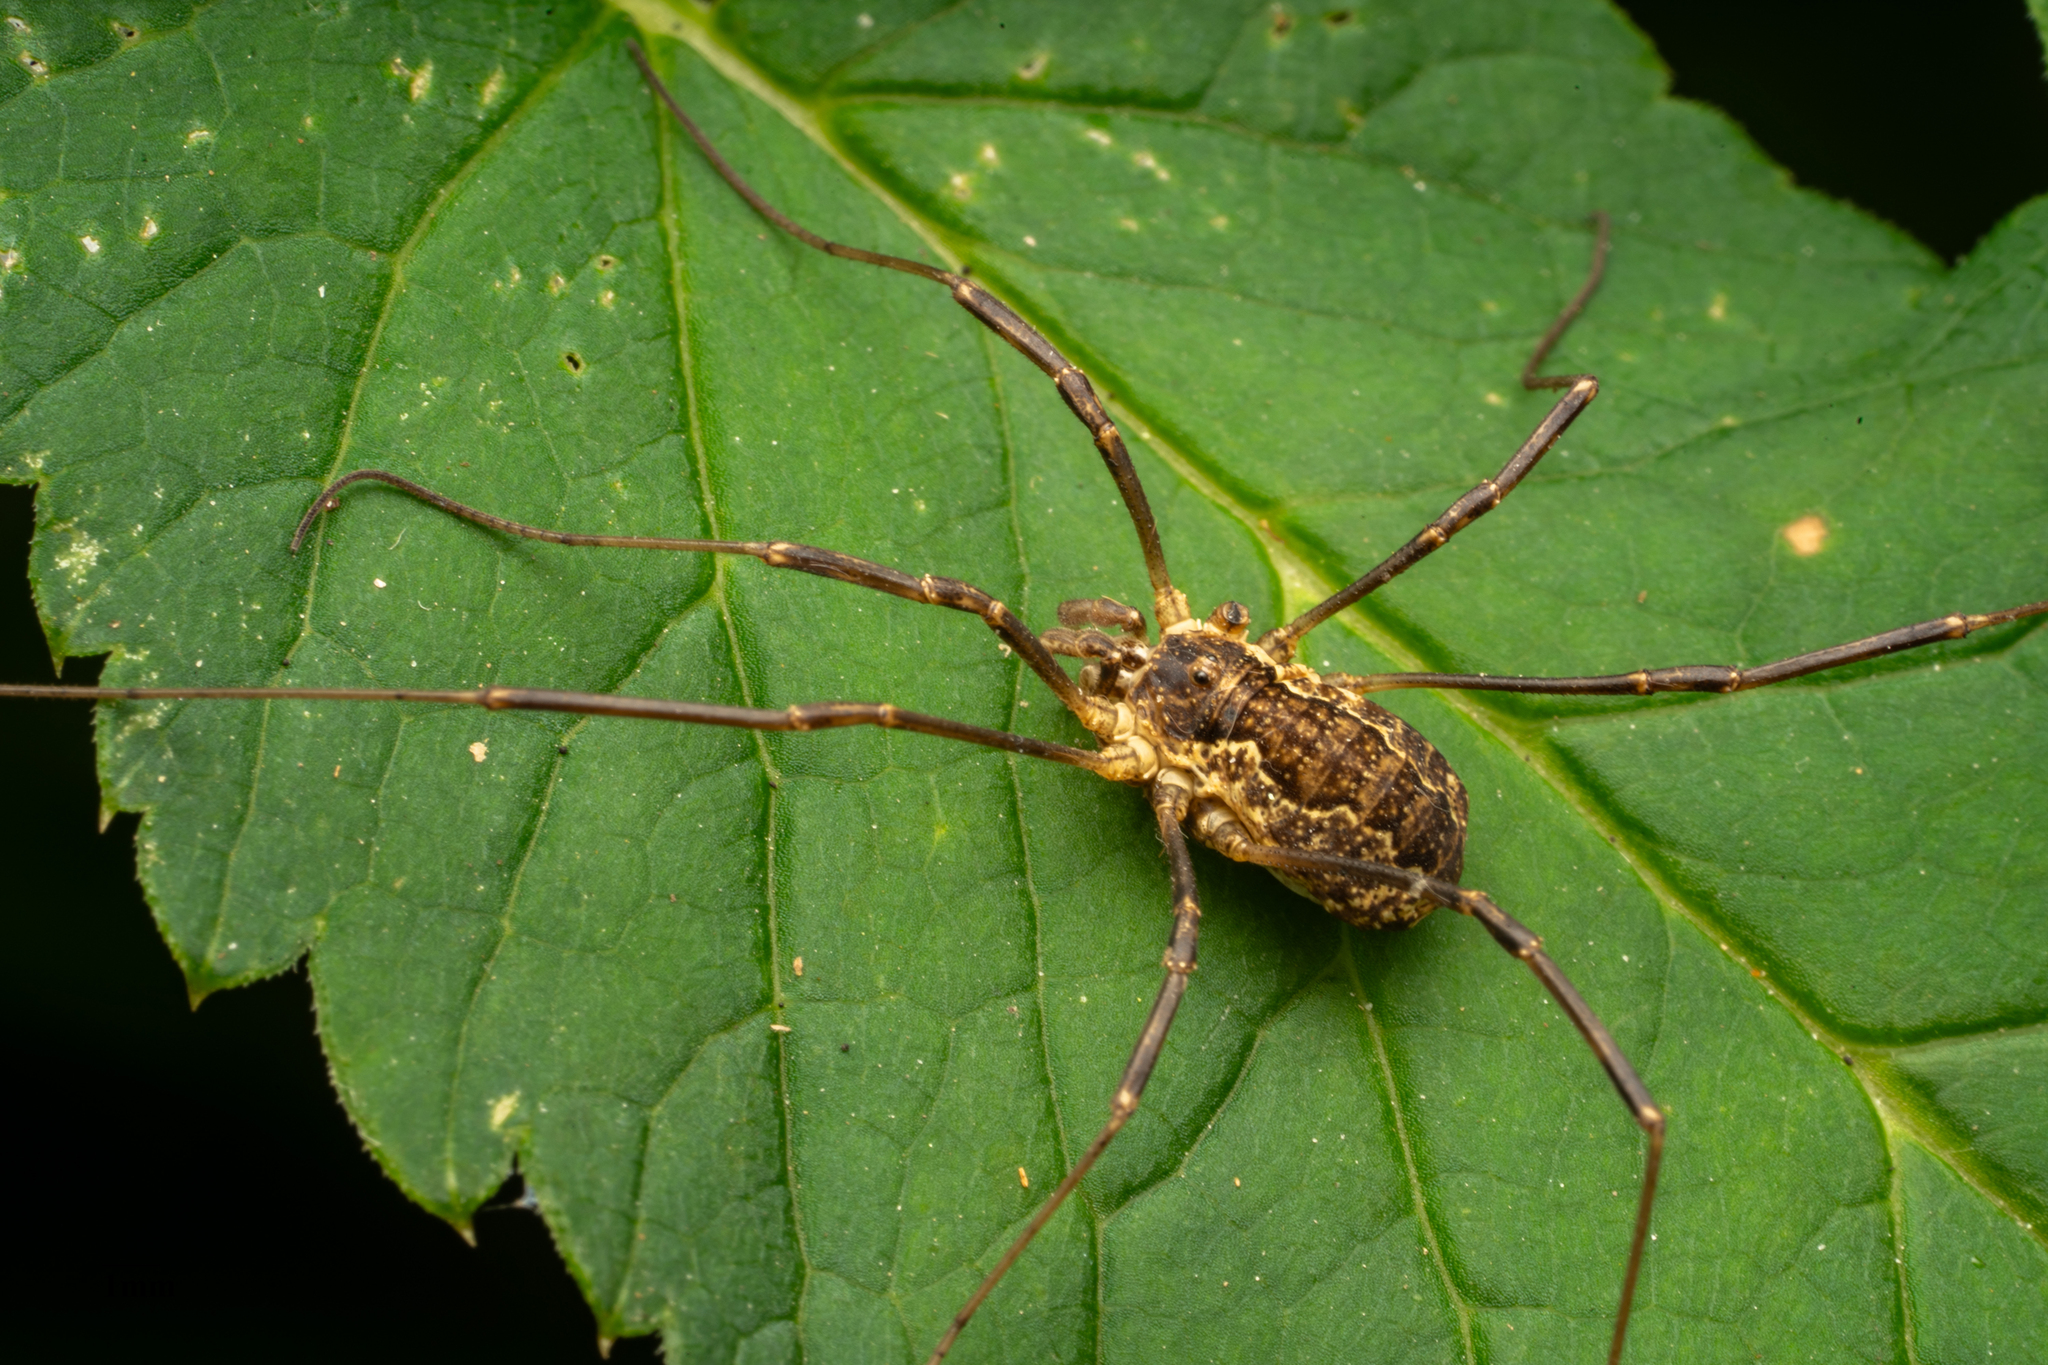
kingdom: Animalia
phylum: Arthropoda
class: Arachnida
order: Opiliones
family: Phalangiidae
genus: Mitopus
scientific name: Mitopus morio
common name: Saddleback harvestman
